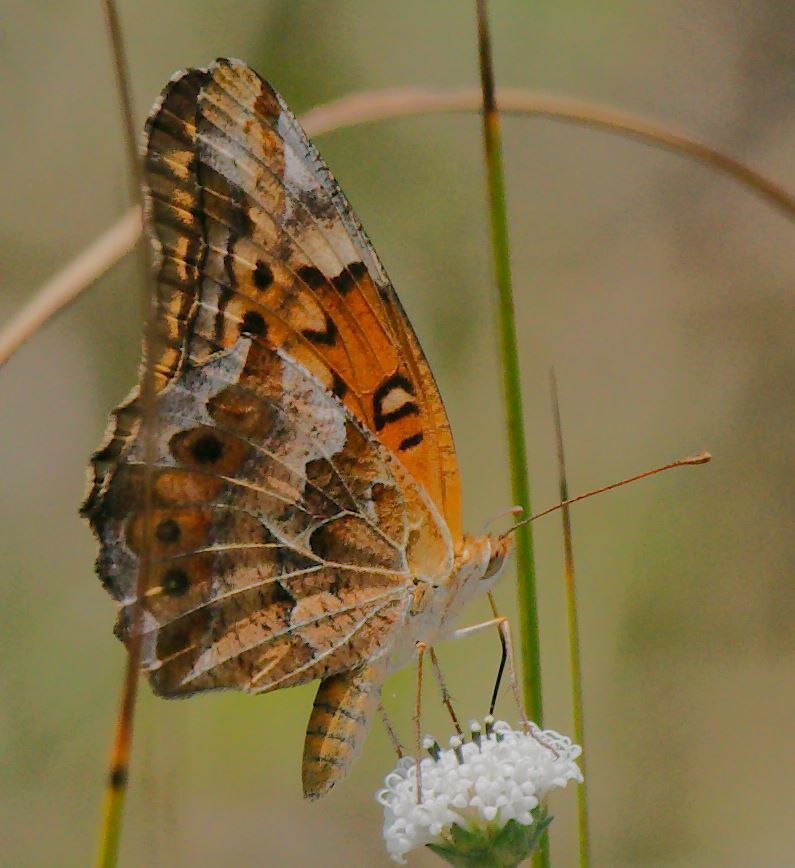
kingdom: Animalia
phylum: Arthropoda
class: Insecta
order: Lepidoptera
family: Nymphalidae
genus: Euptoieta
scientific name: Euptoieta claudia
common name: Variegated fritillary
